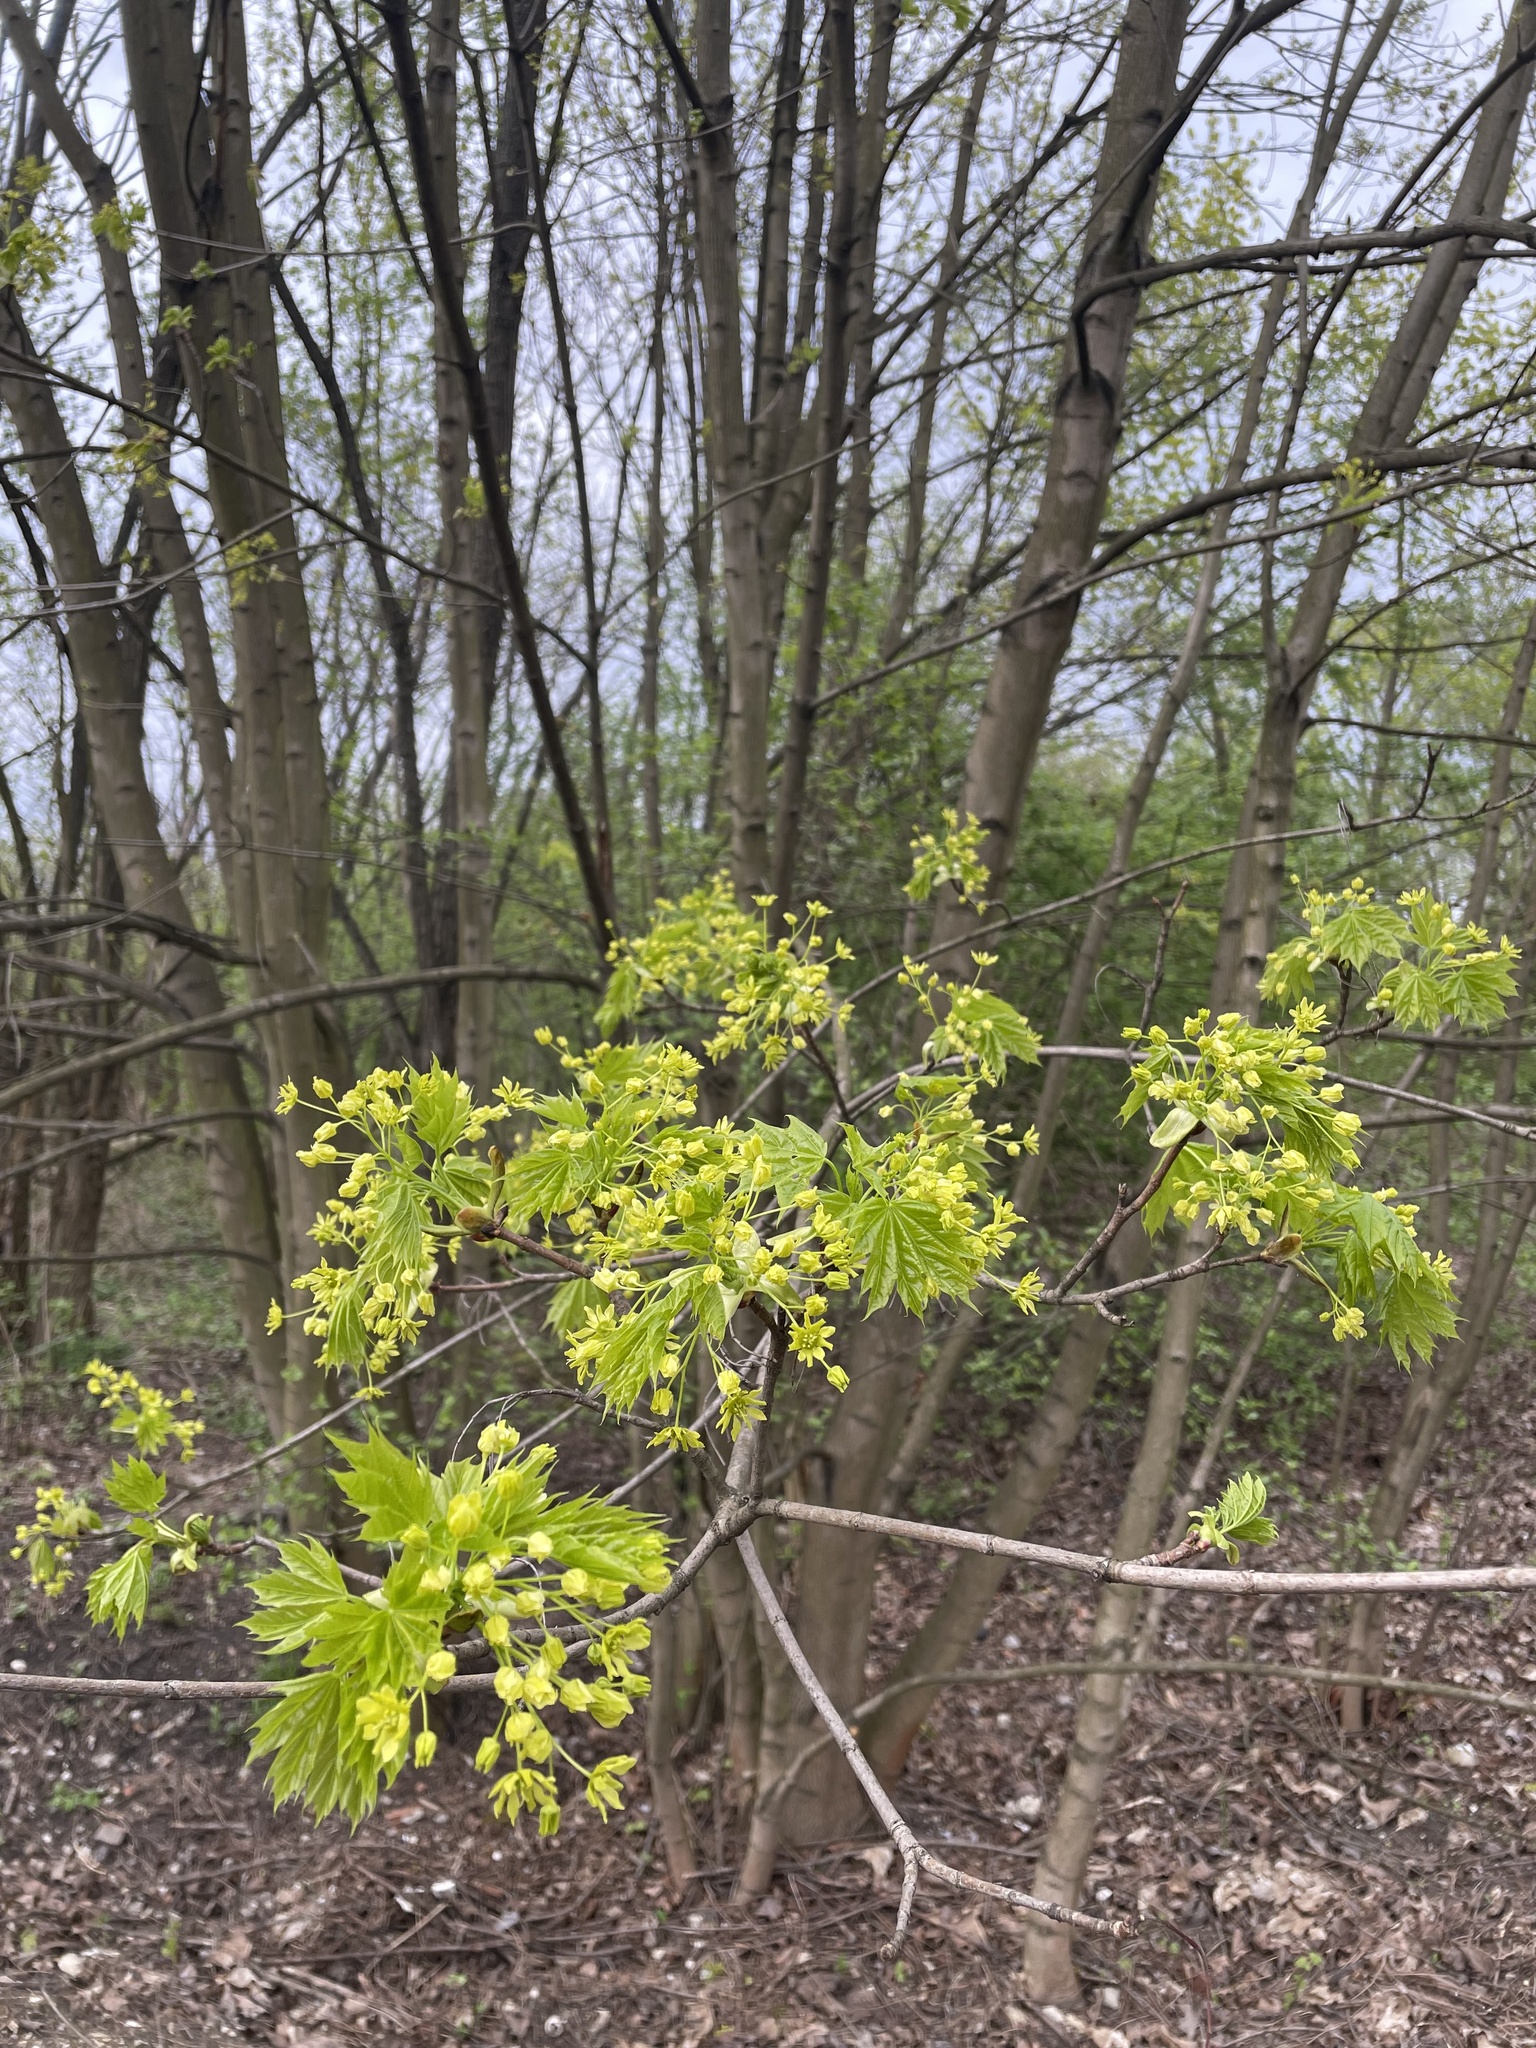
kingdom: Plantae
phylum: Tracheophyta
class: Magnoliopsida
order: Sapindales
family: Sapindaceae
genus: Acer
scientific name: Acer platanoides
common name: Norway maple
